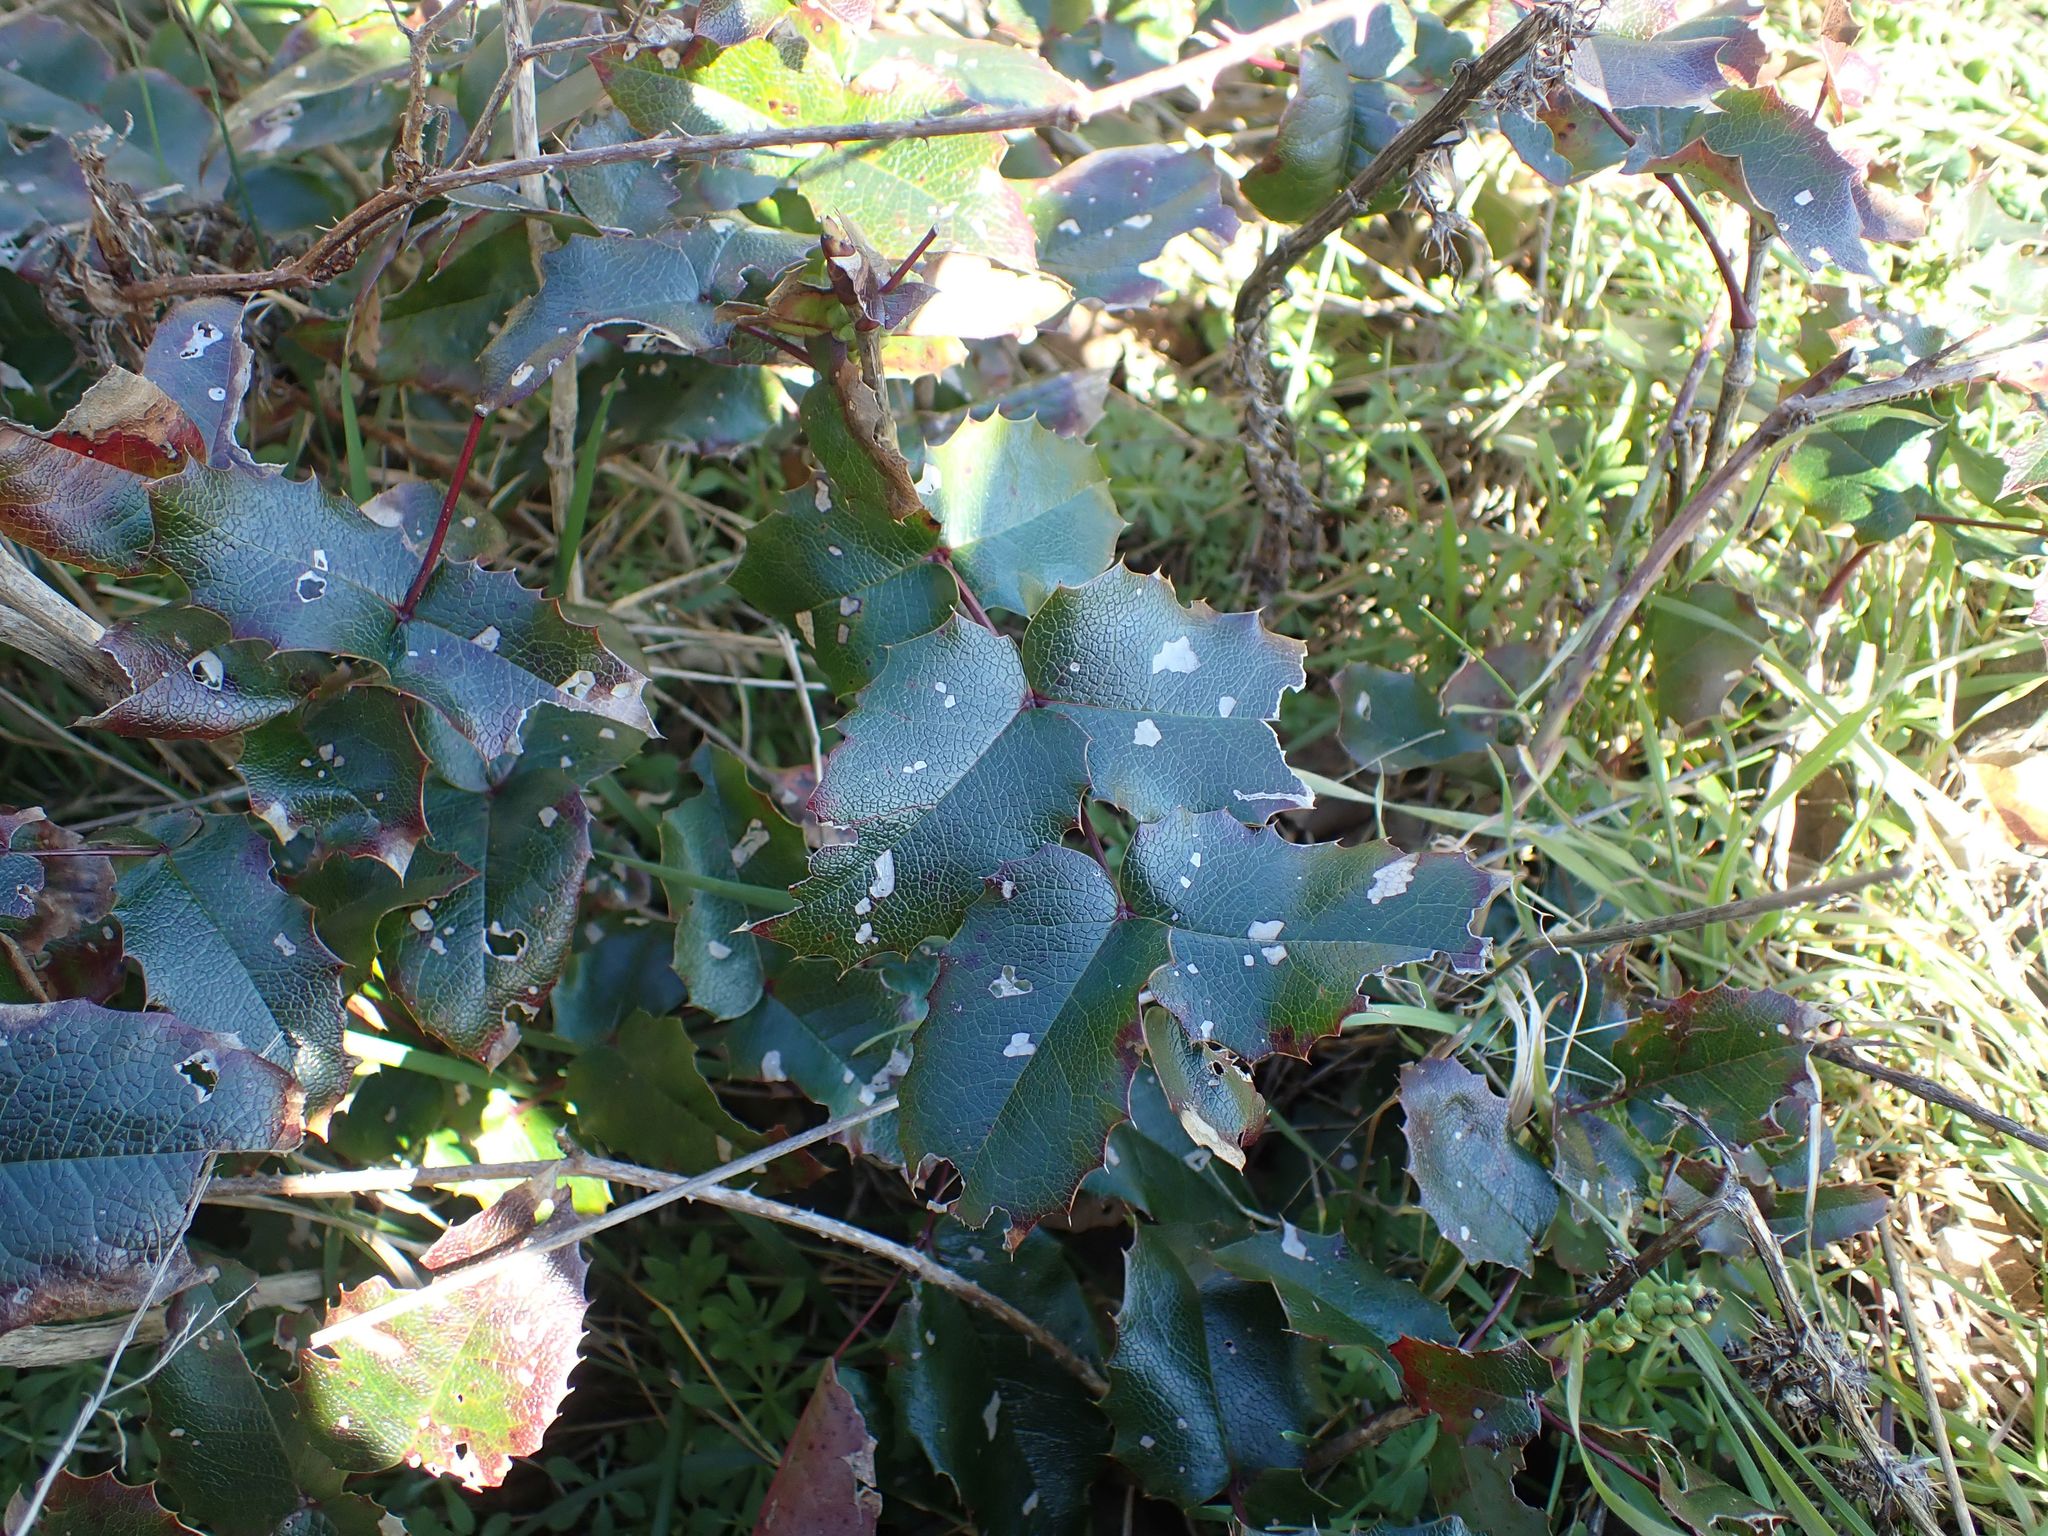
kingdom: Plantae
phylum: Tracheophyta
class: Magnoliopsida
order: Ranunculales
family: Berberidaceae
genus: Mahonia
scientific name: Mahonia aquifolium
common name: Oregon-grape
